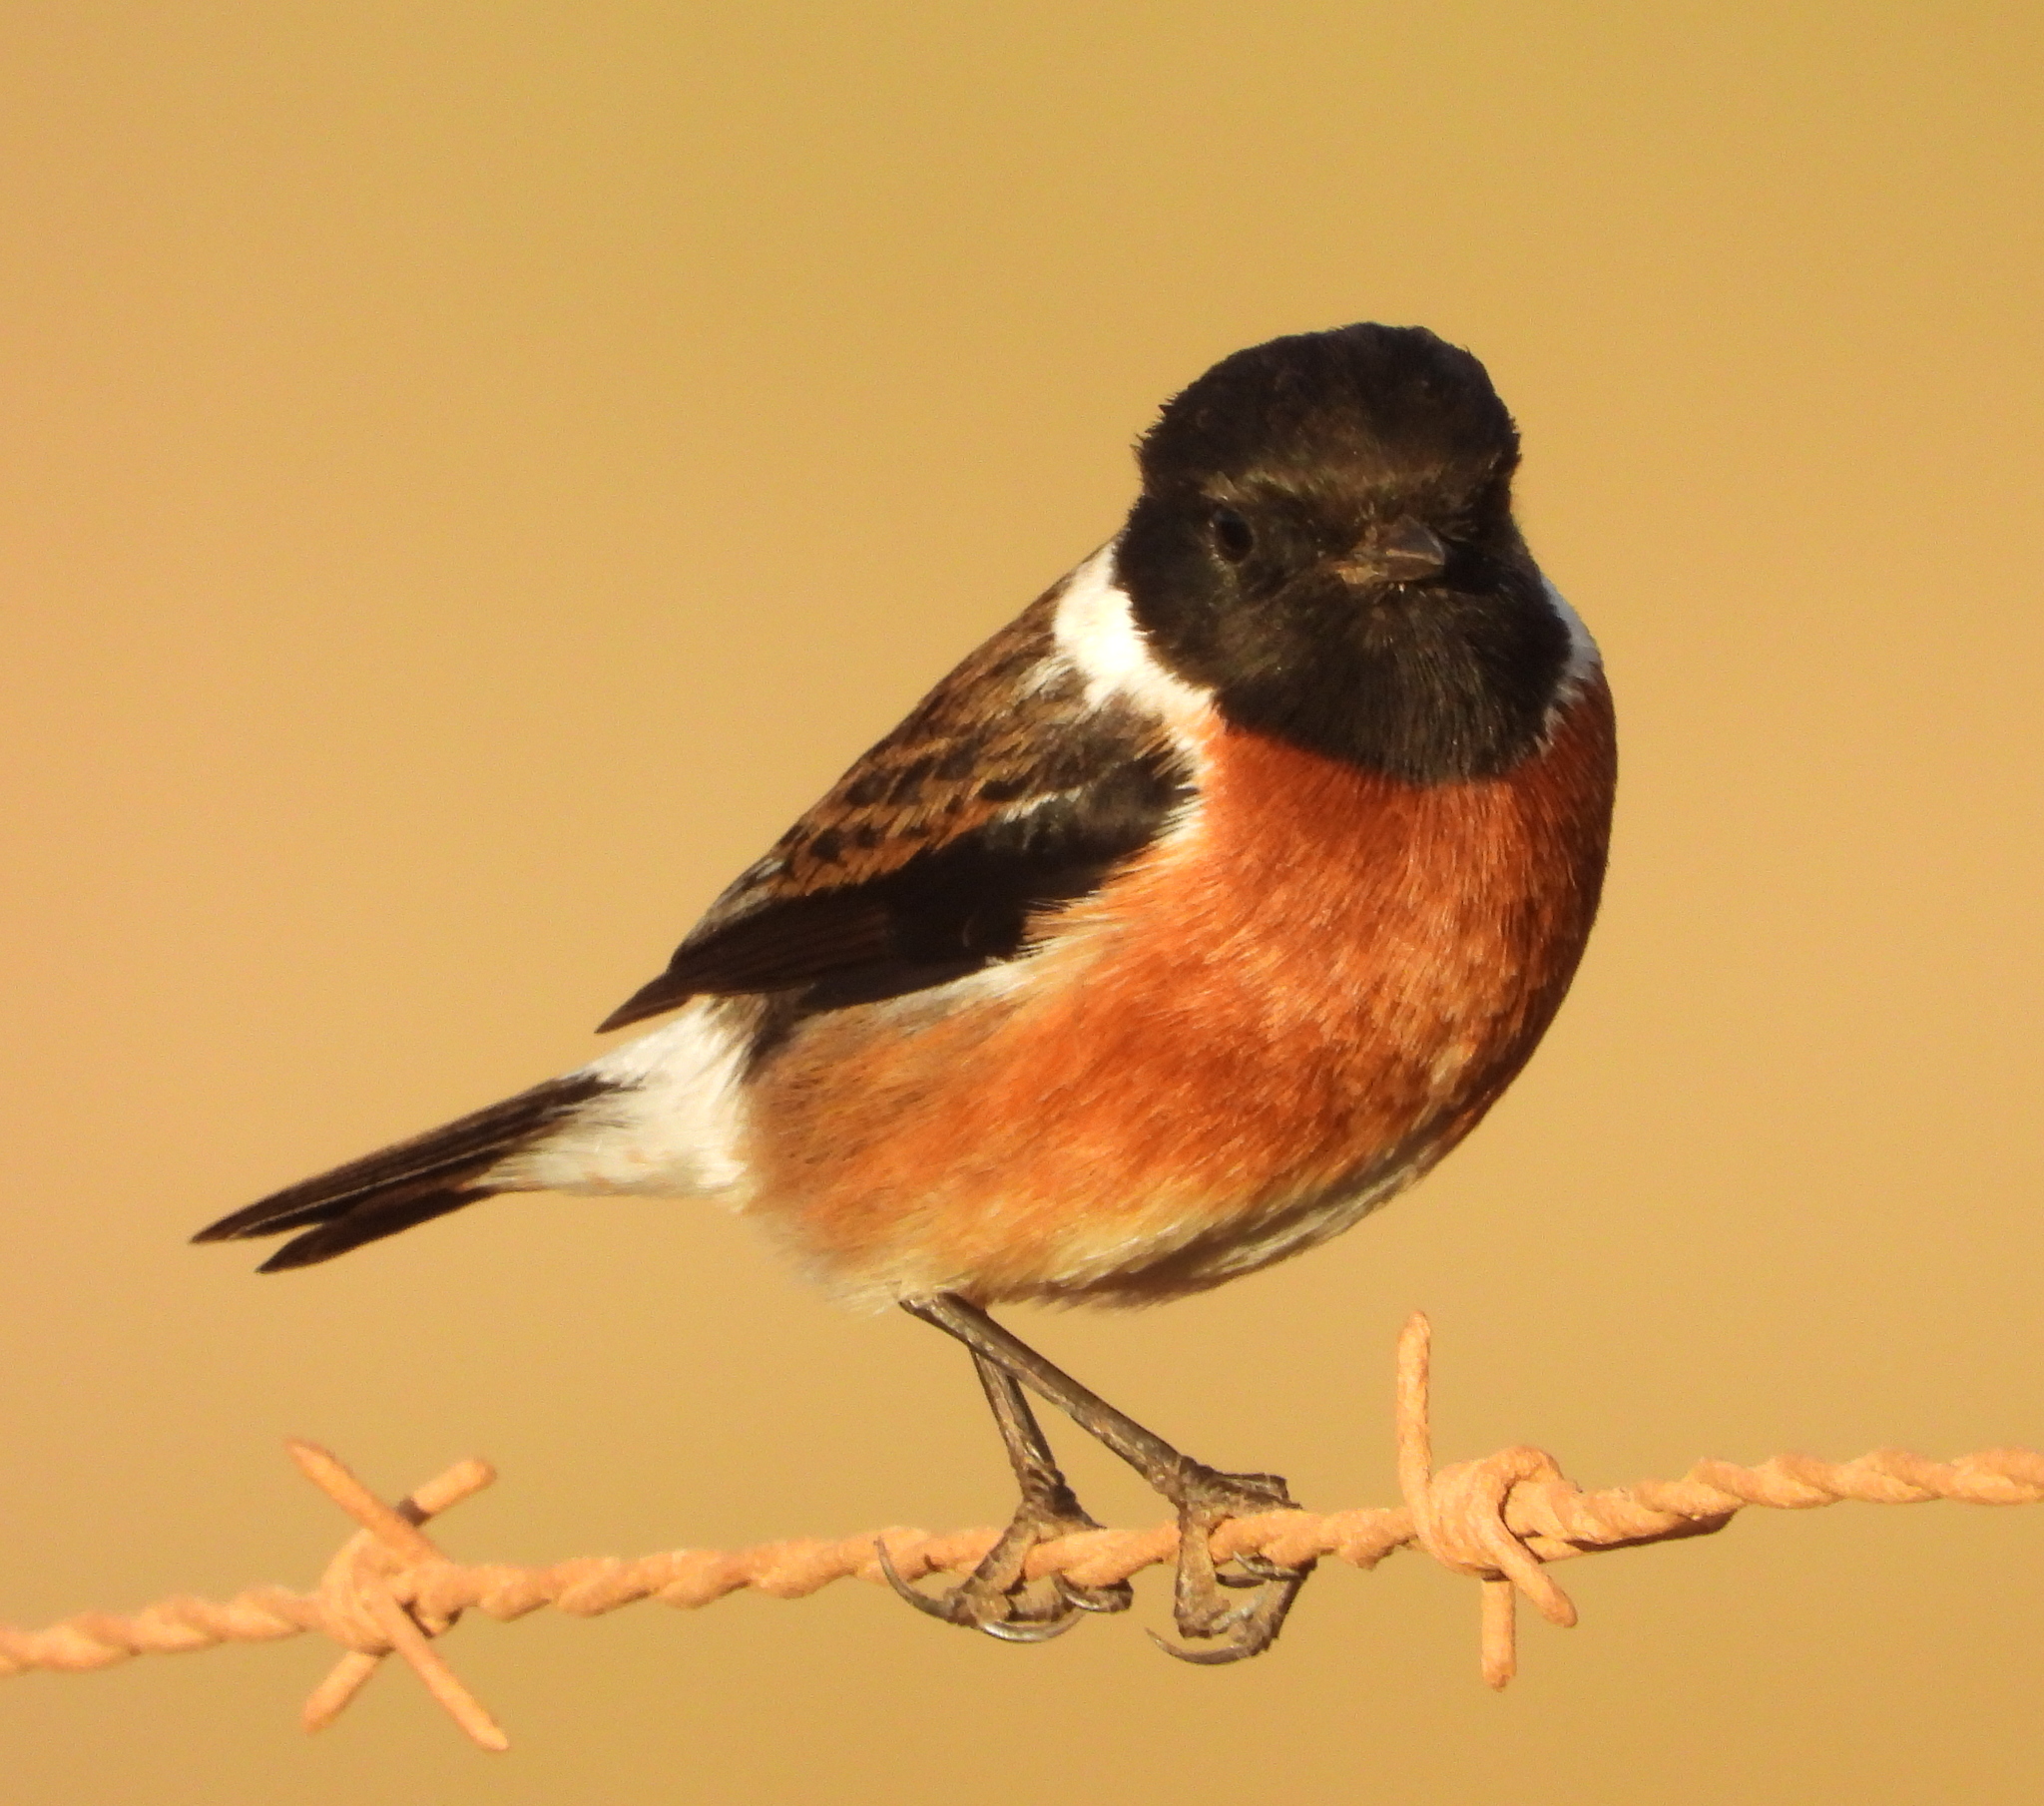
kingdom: Animalia
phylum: Chordata
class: Aves
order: Passeriformes
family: Muscicapidae
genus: Saxicola
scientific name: Saxicola torquatus
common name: African stonechat
